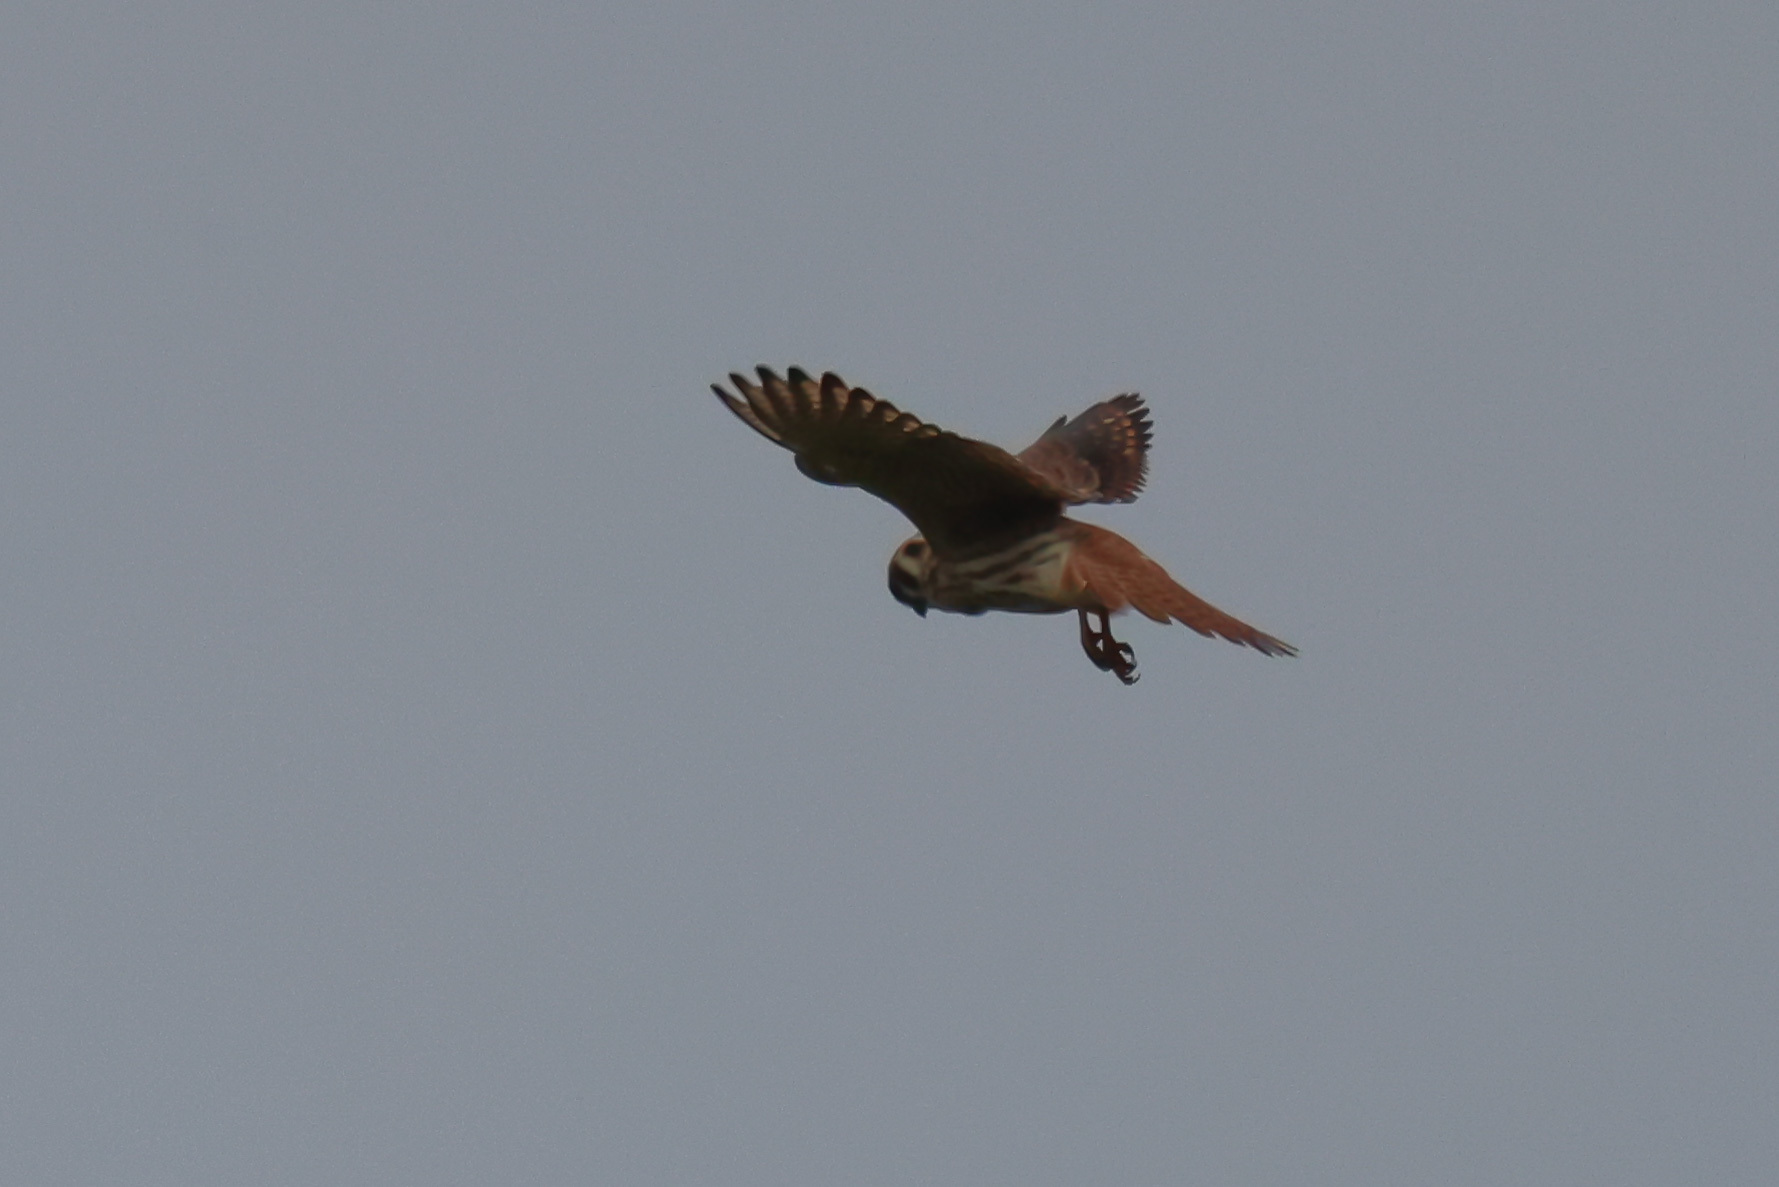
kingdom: Animalia
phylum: Chordata
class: Aves
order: Falconiformes
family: Falconidae
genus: Falco
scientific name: Falco sparverius
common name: American kestrel
